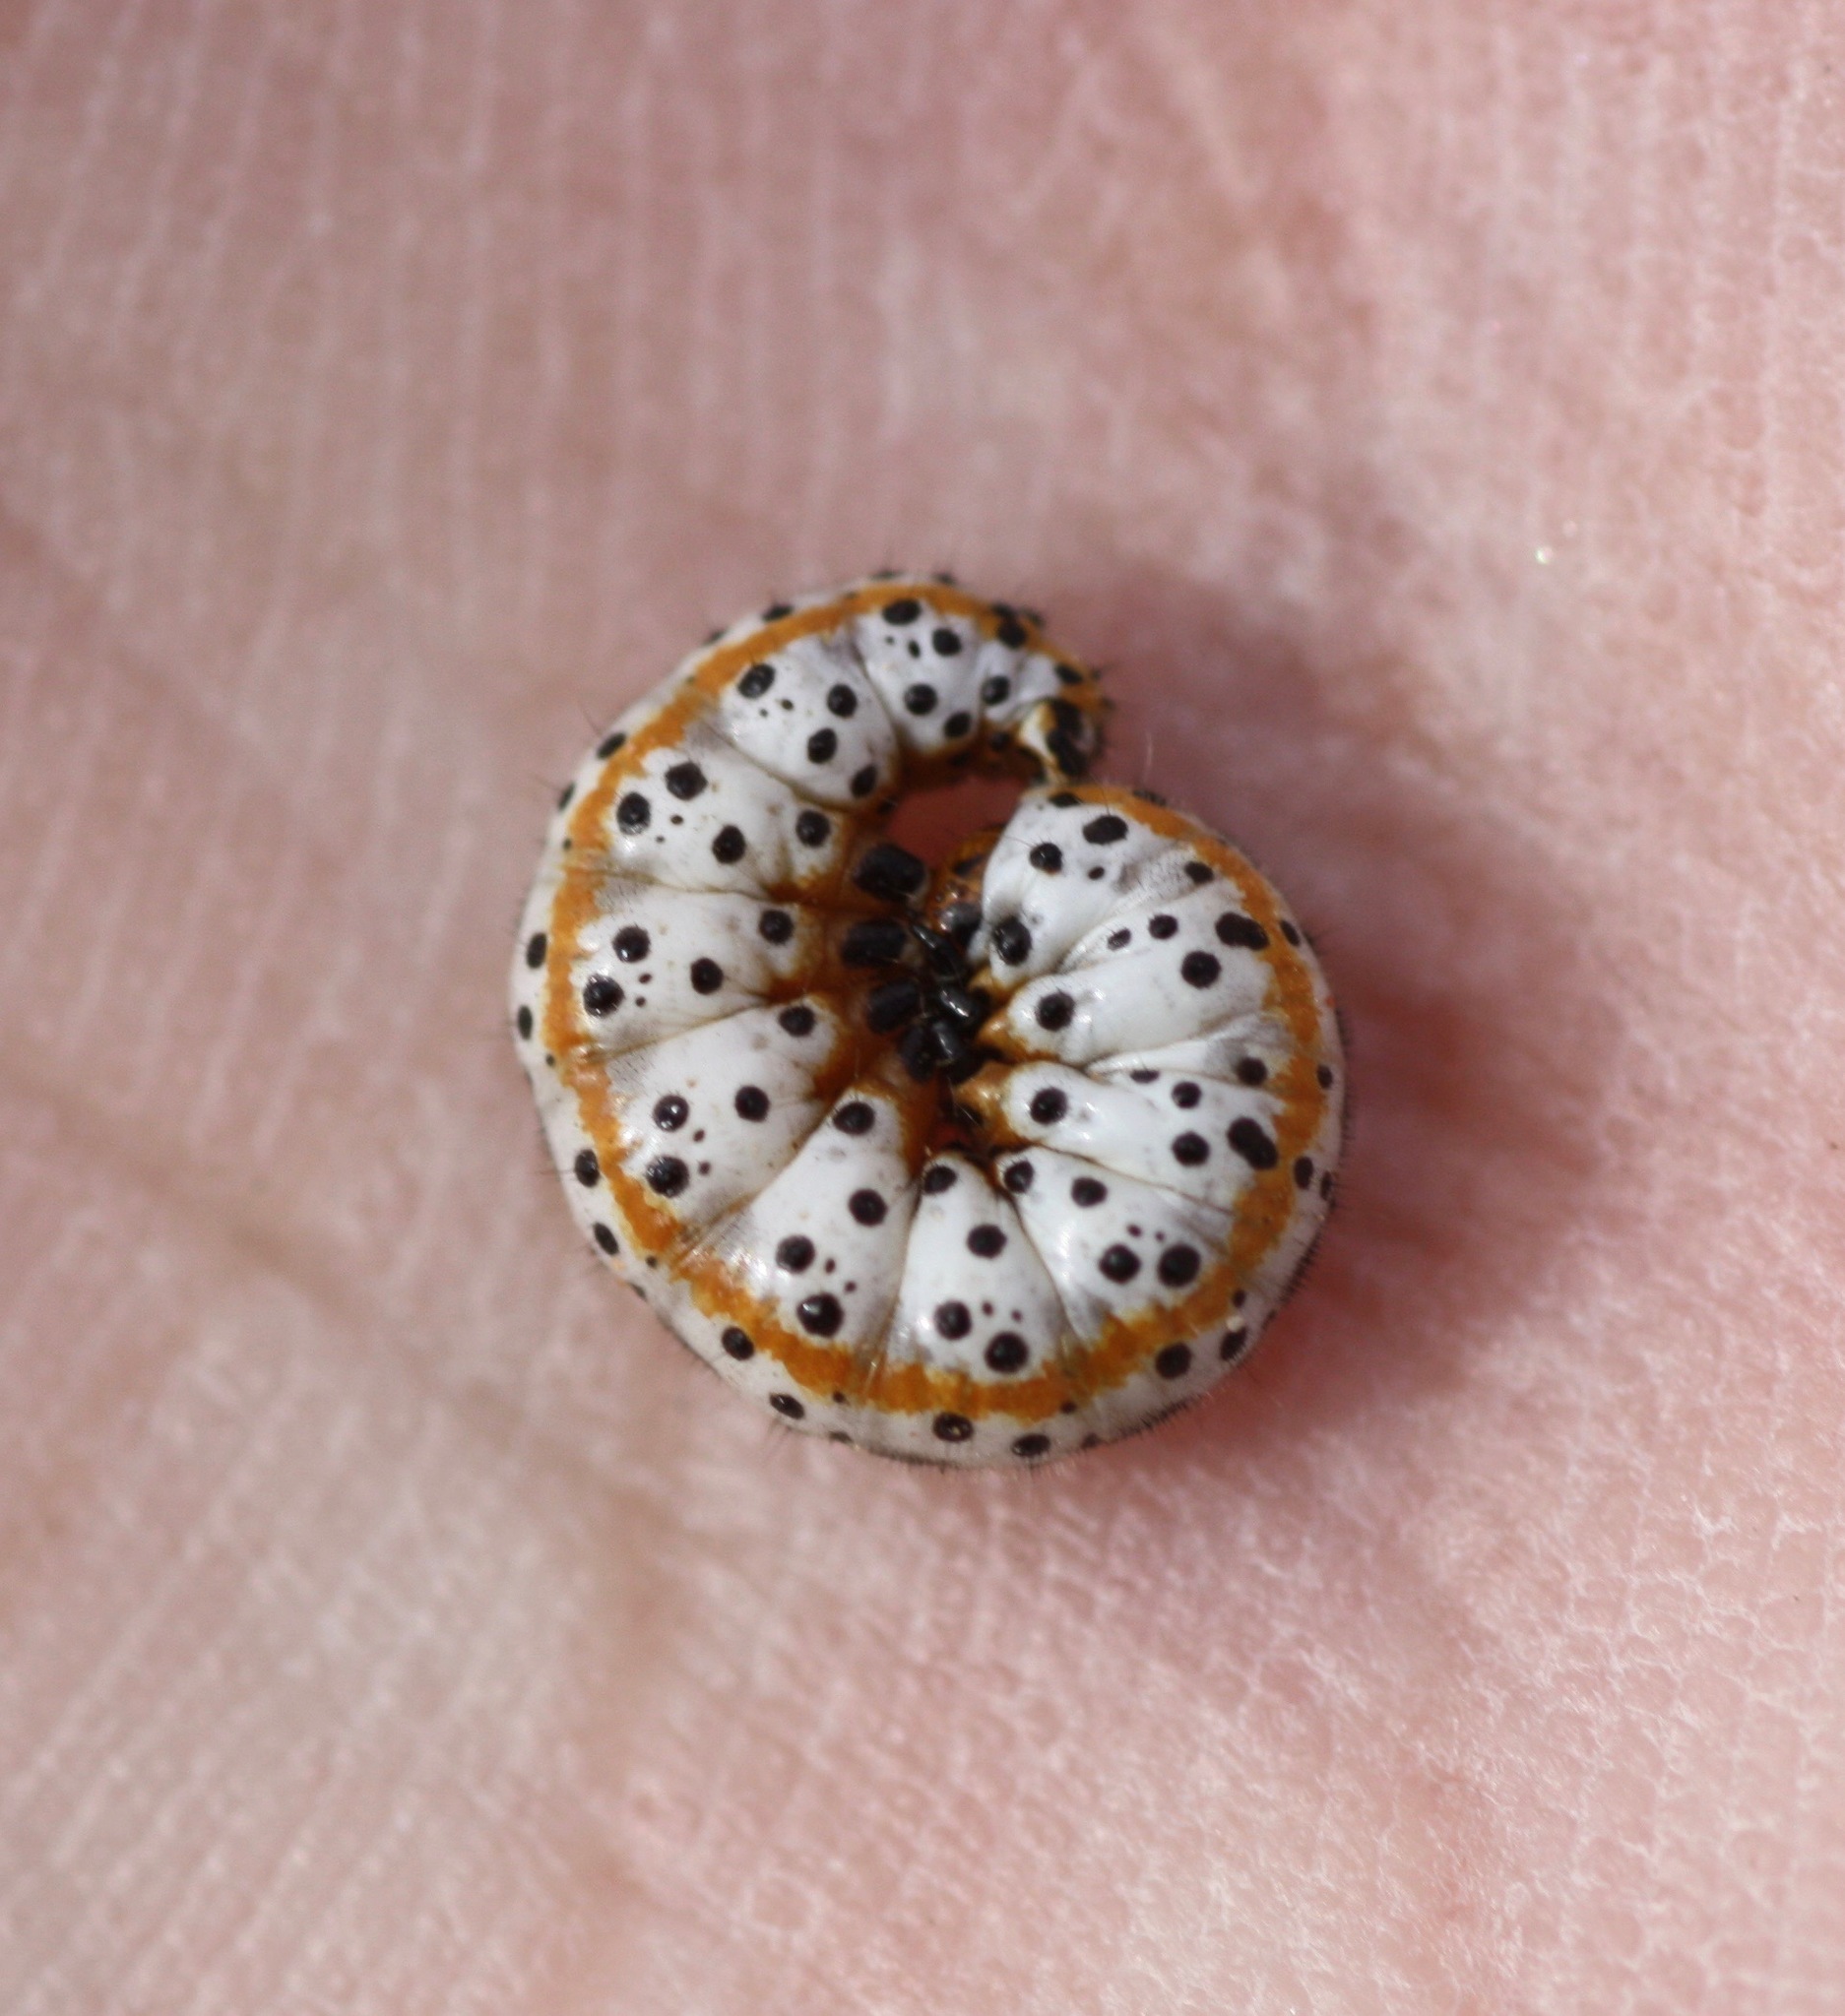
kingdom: Animalia
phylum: Arthropoda
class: Insecta
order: Lepidoptera
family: Noctuidae
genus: Schinia
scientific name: Schinia grandimedia
